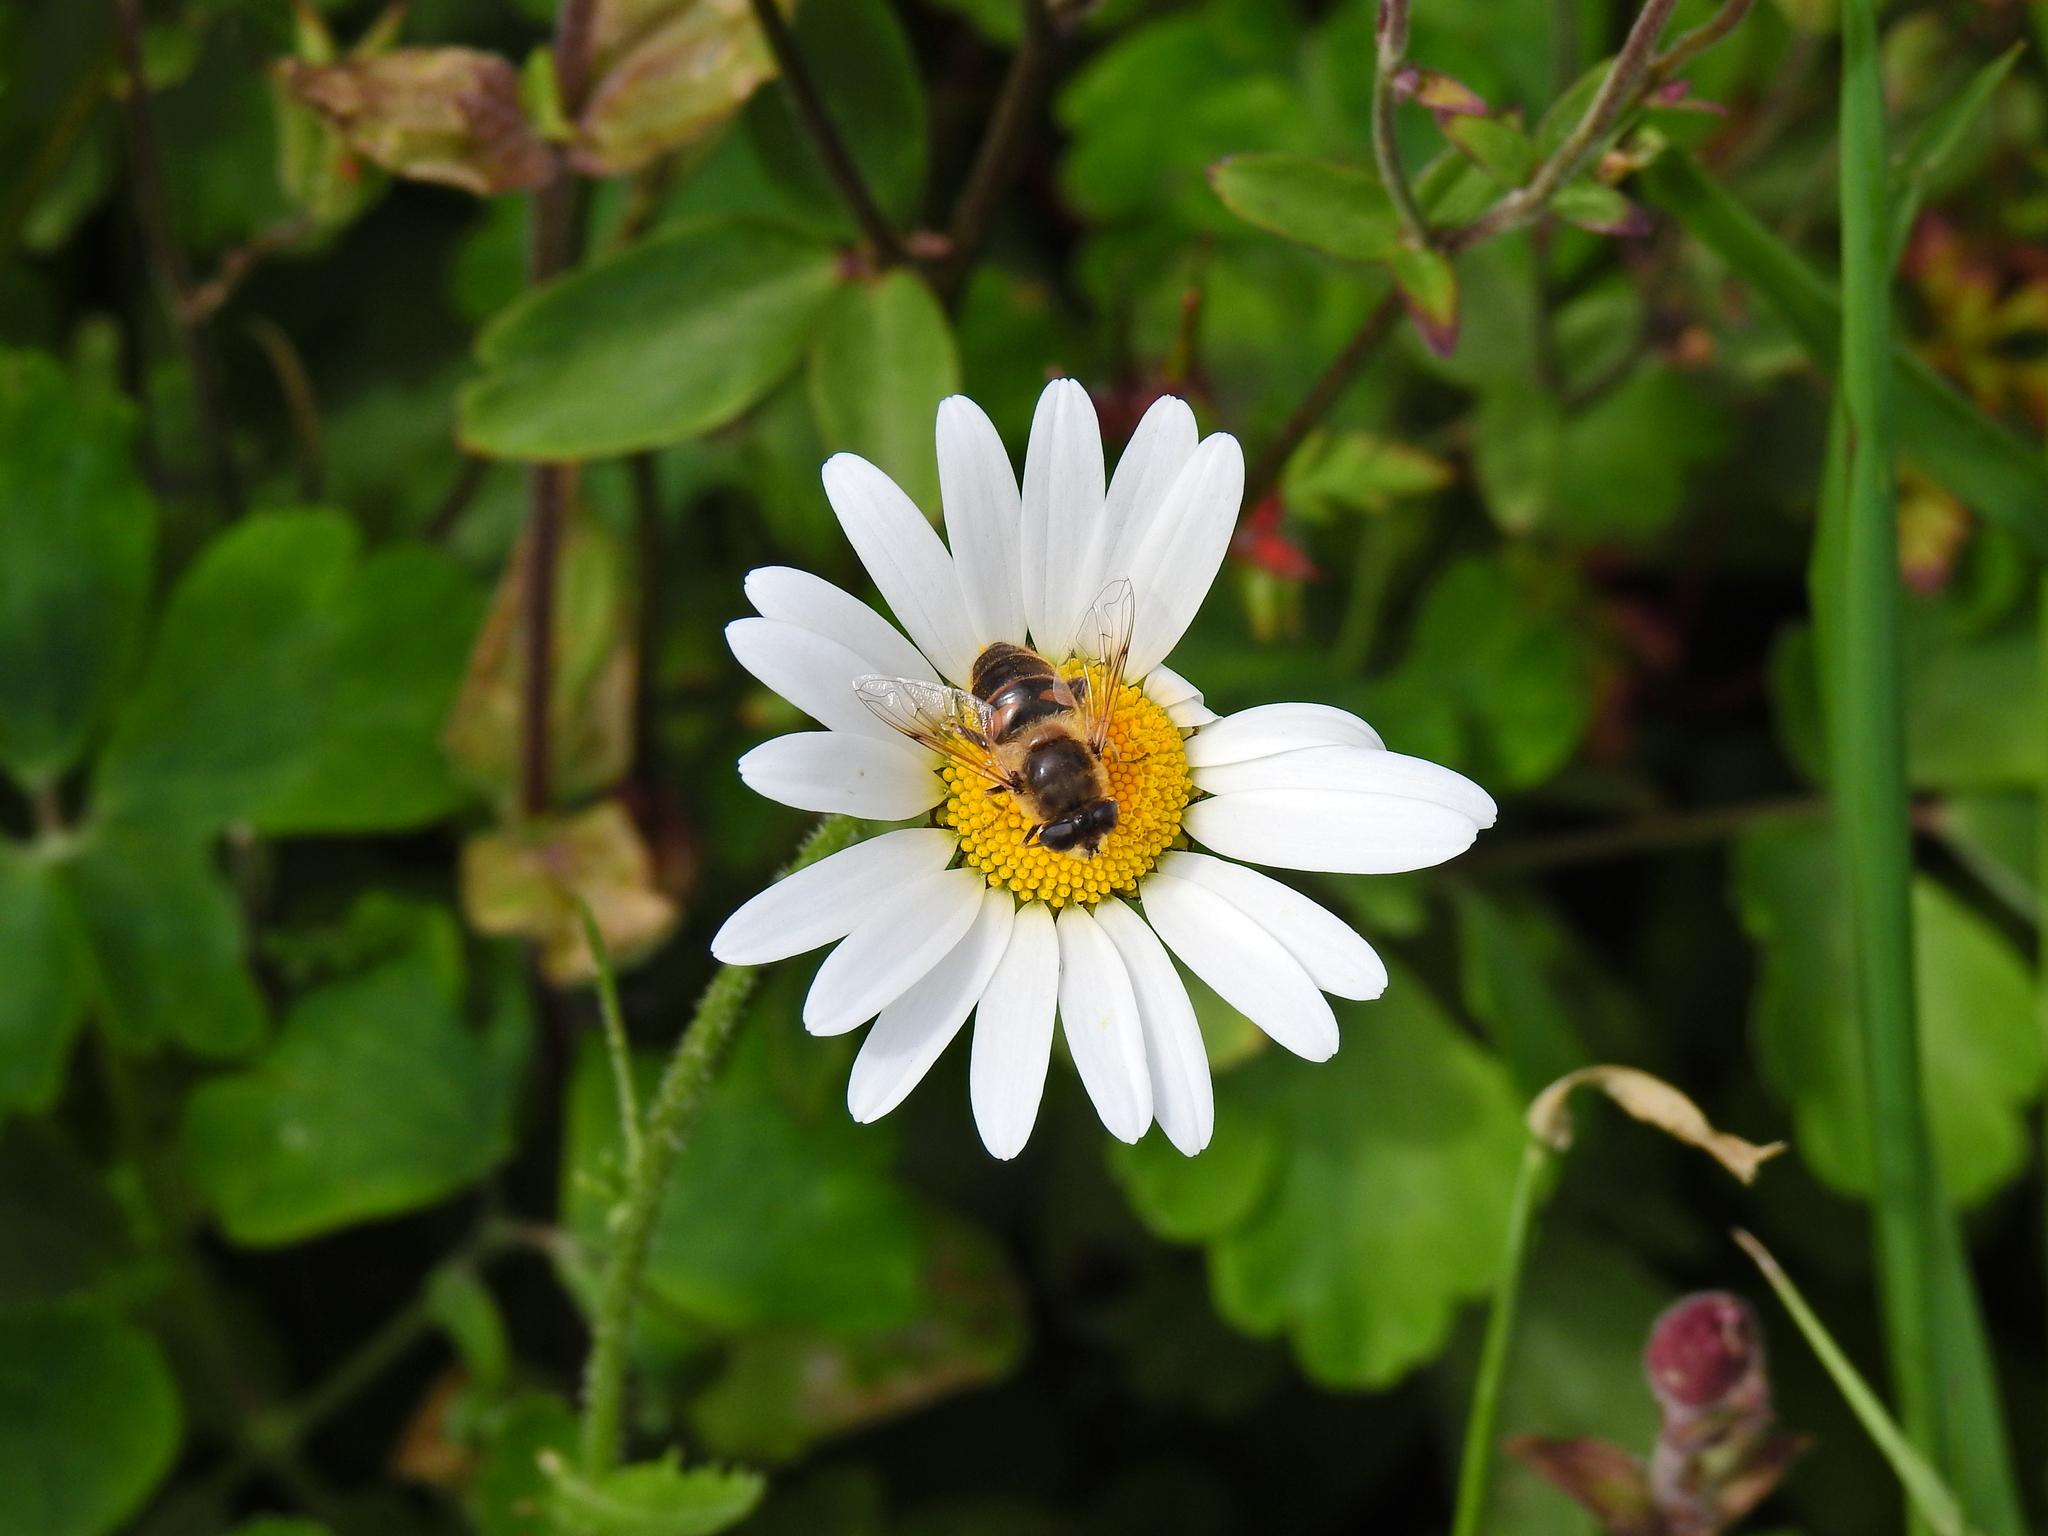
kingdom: Animalia
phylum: Arthropoda
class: Insecta
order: Diptera
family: Syrphidae
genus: Eristalis
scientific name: Eristalis tenax
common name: Drone fly
